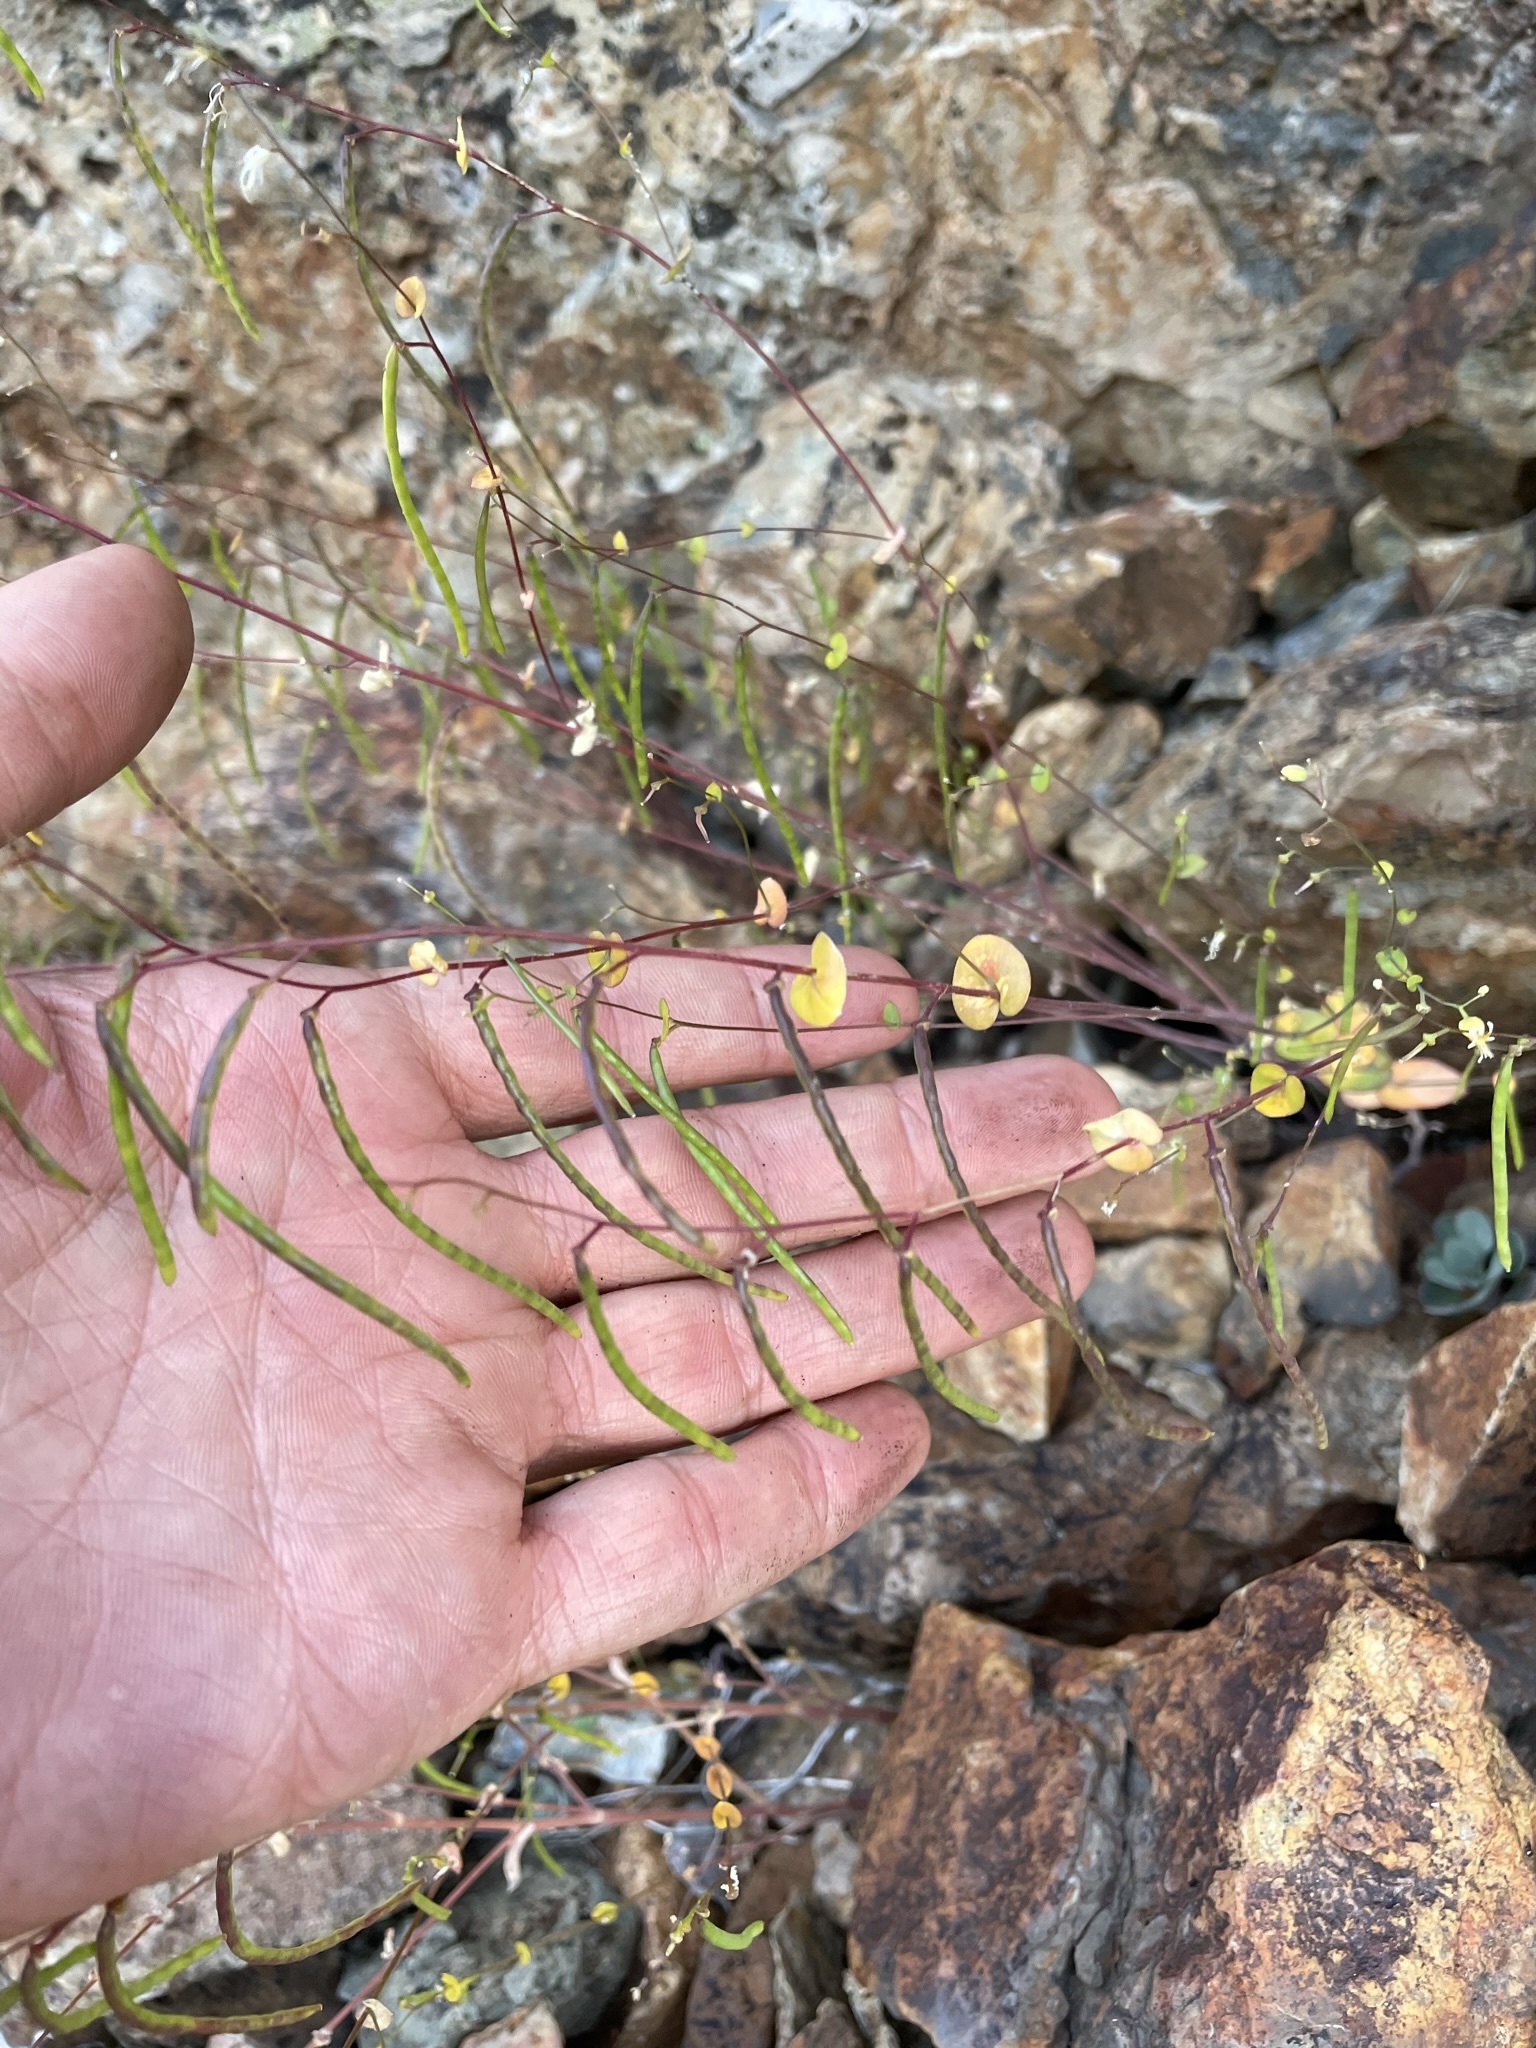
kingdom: Plantae
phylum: Tracheophyta
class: Magnoliopsida
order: Brassicales
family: Brassicaceae
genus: Streptanthus
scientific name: Streptanthus tortuosus
